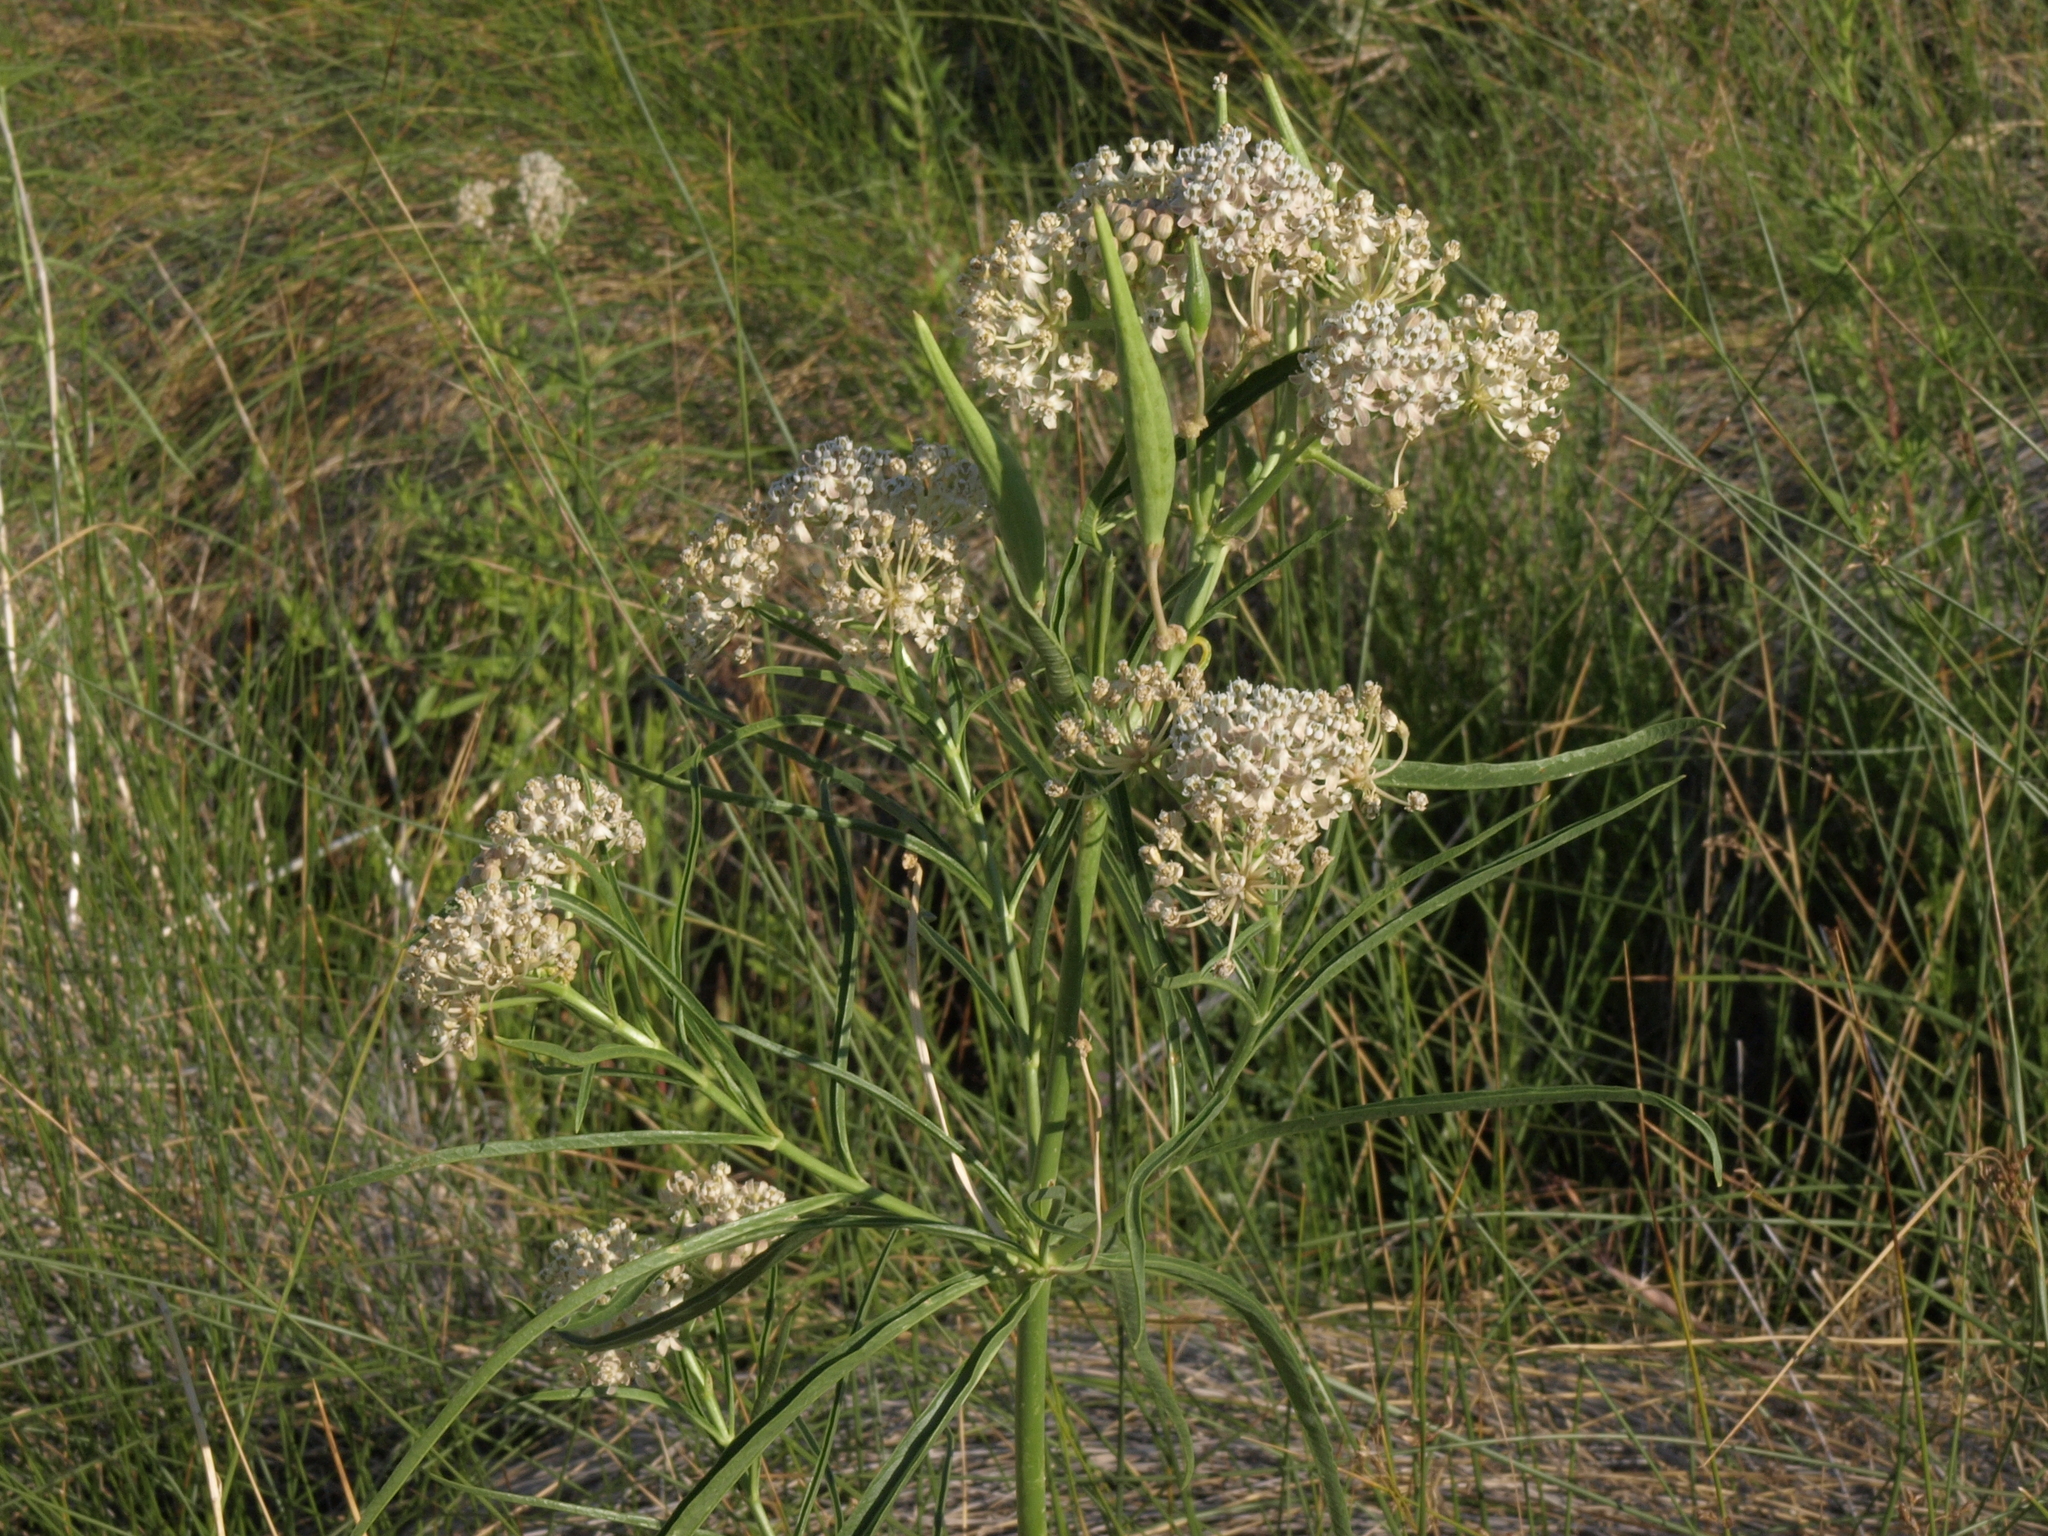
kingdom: Plantae
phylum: Tracheophyta
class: Magnoliopsida
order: Gentianales
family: Apocynaceae
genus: Asclepias
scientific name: Asclepias fascicularis
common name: Mexican milkweed
